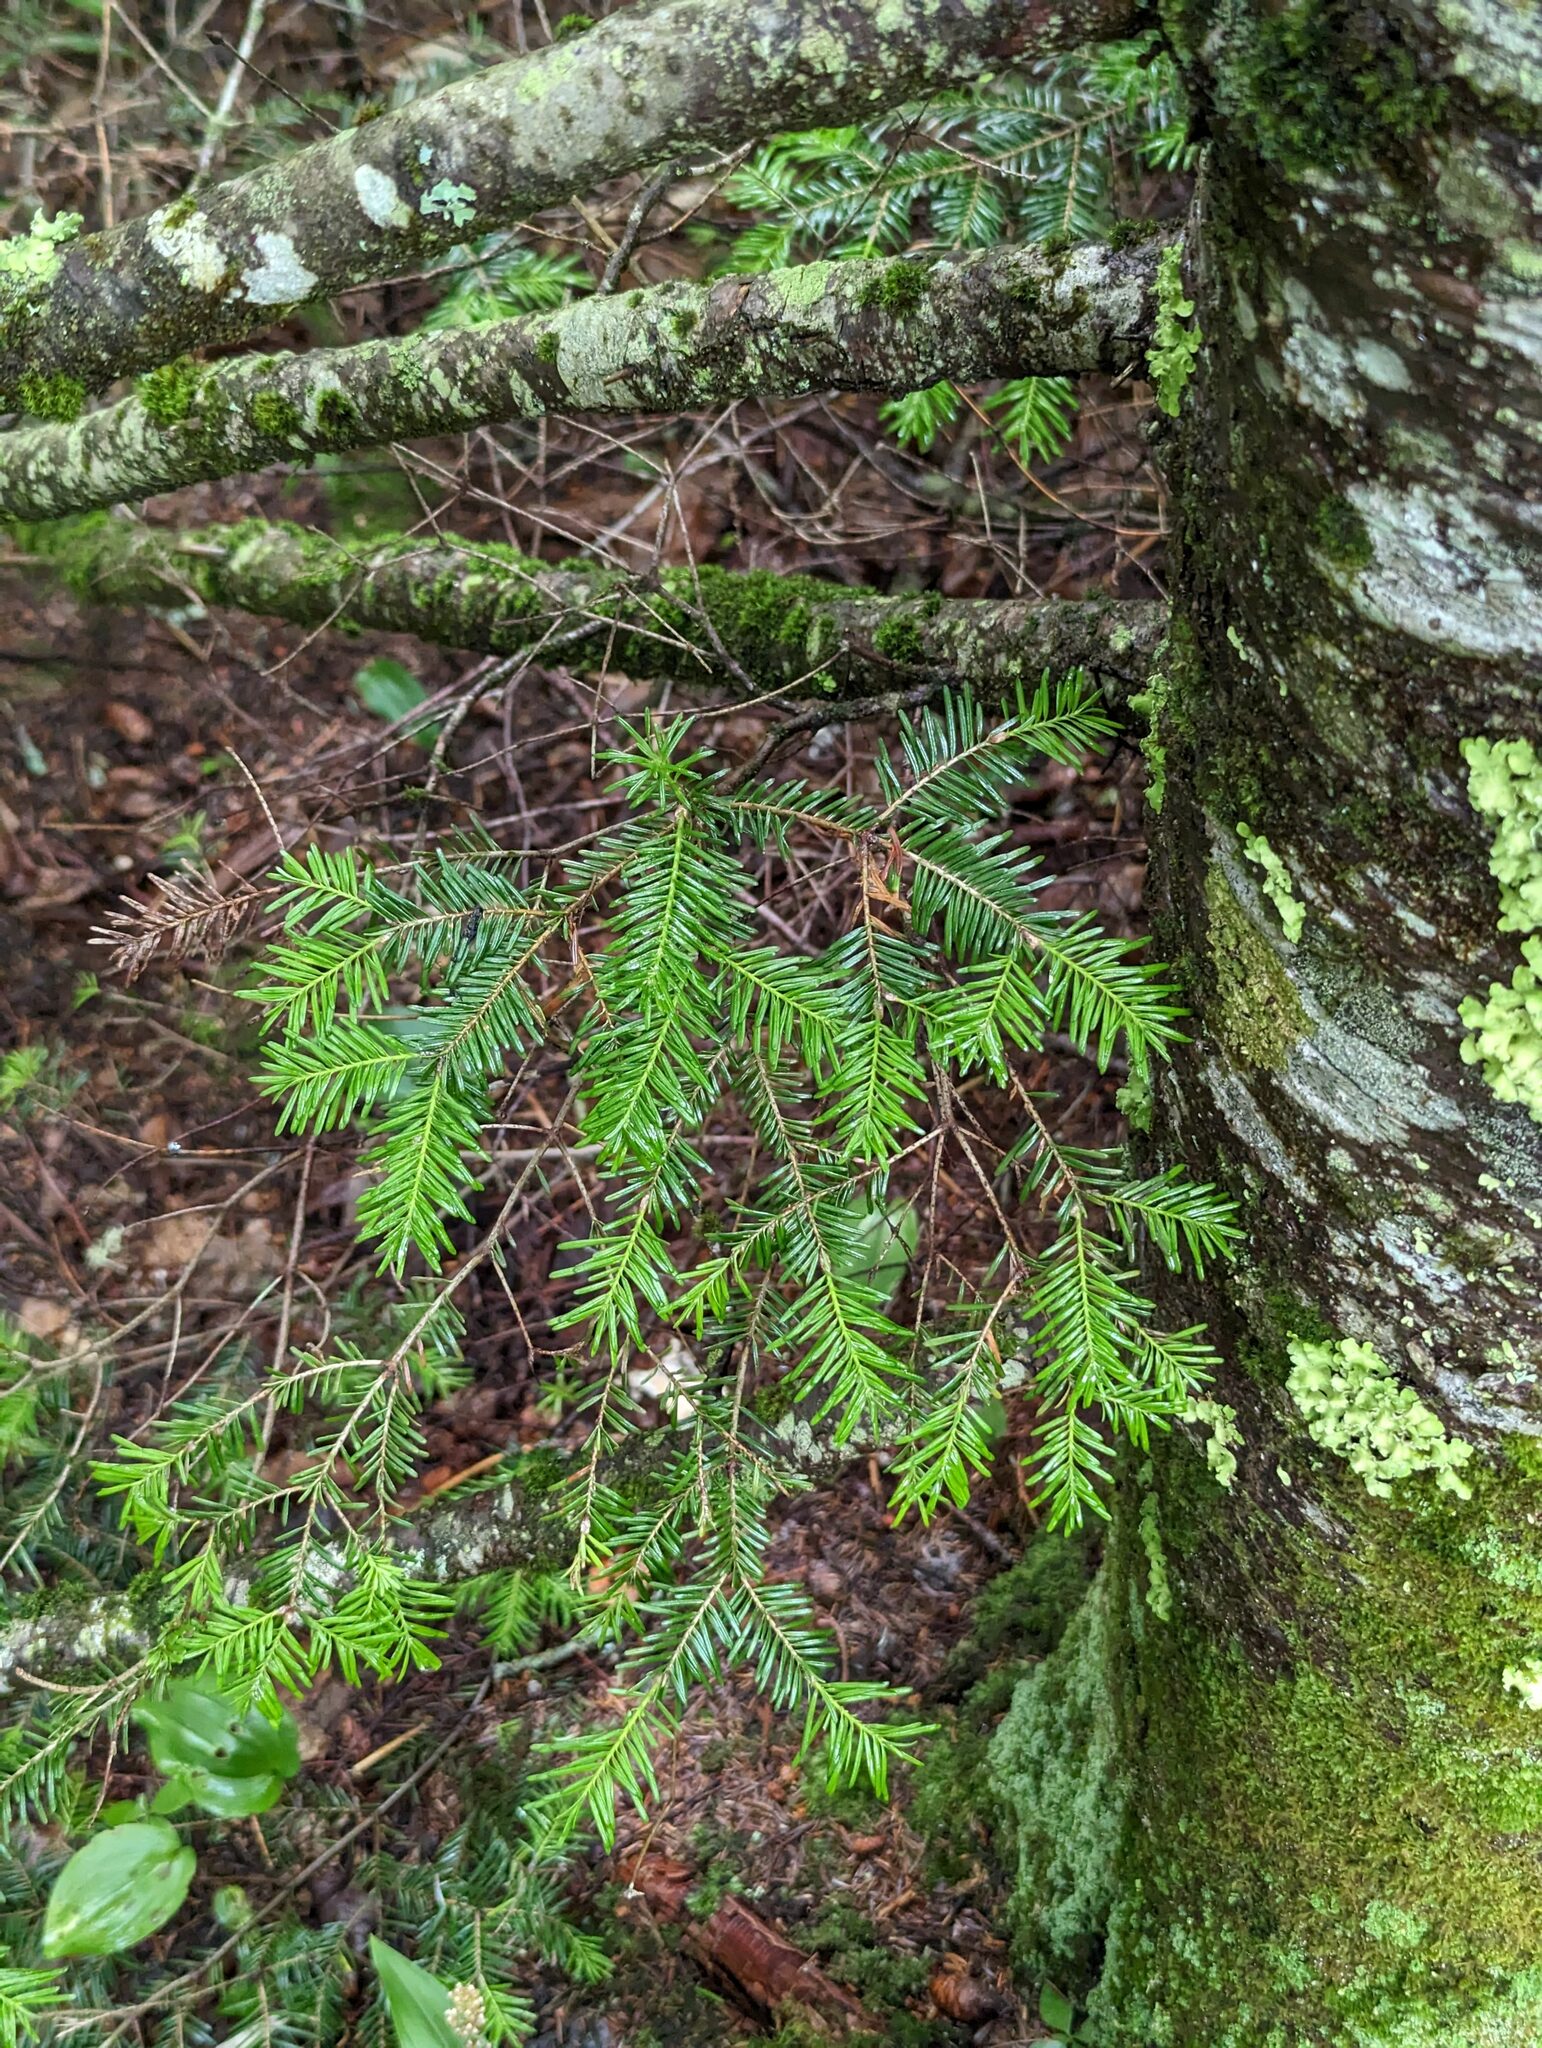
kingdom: Plantae
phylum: Tracheophyta
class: Pinopsida
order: Pinales
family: Pinaceae
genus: Abies
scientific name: Abies balsamea
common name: Balsam fir
